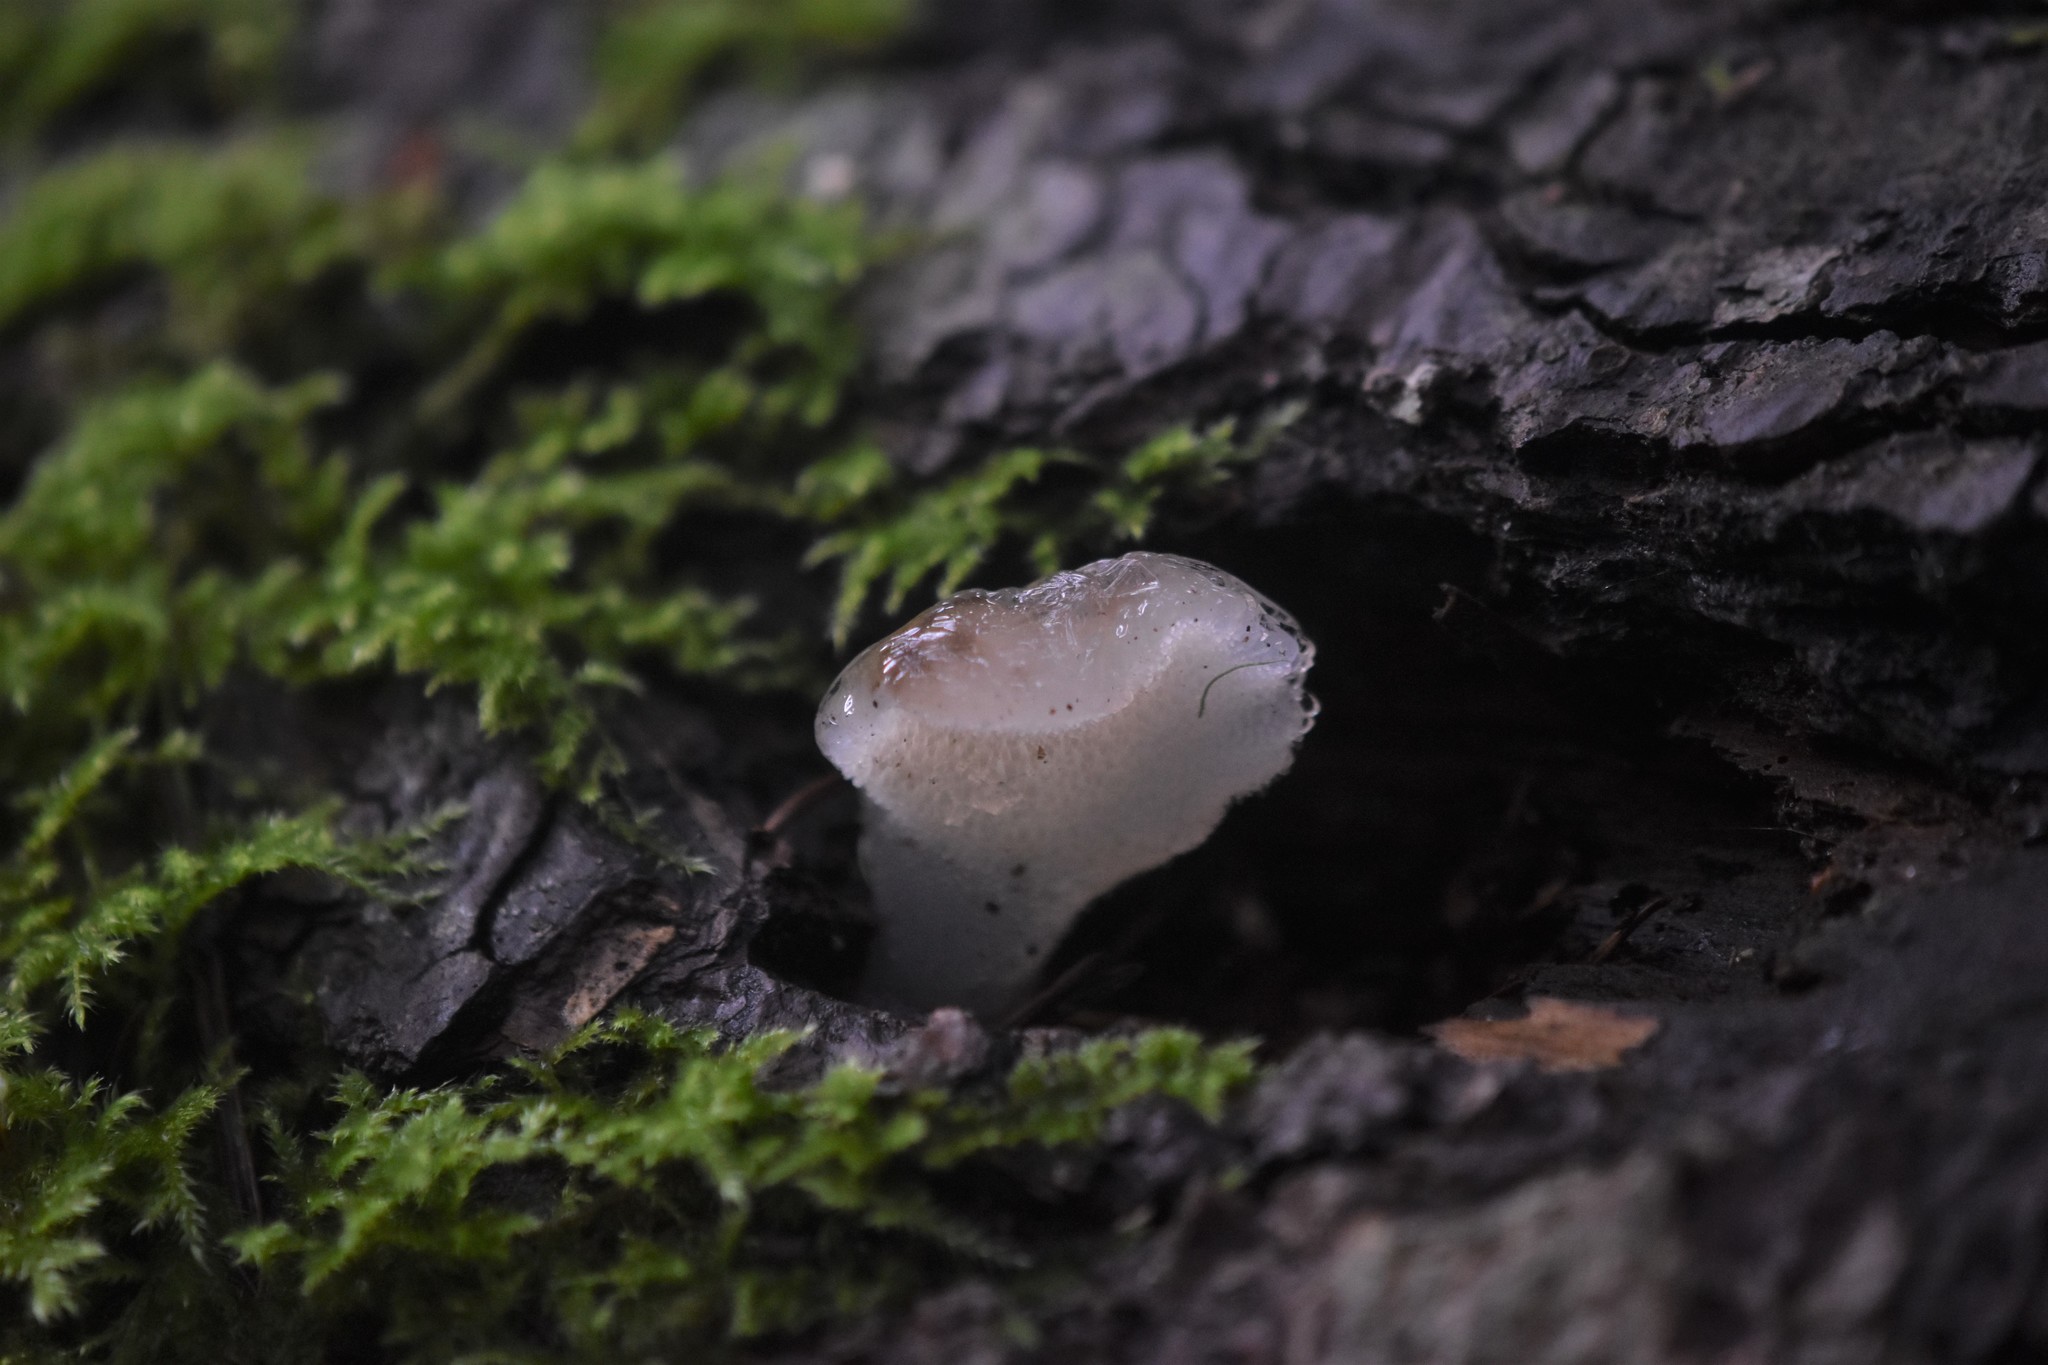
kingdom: Fungi
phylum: Basidiomycota
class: Agaricomycetes
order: Auriculariales
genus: Pseudohydnum
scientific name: Pseudohydnum gelatinosum
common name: Jelly tongue
